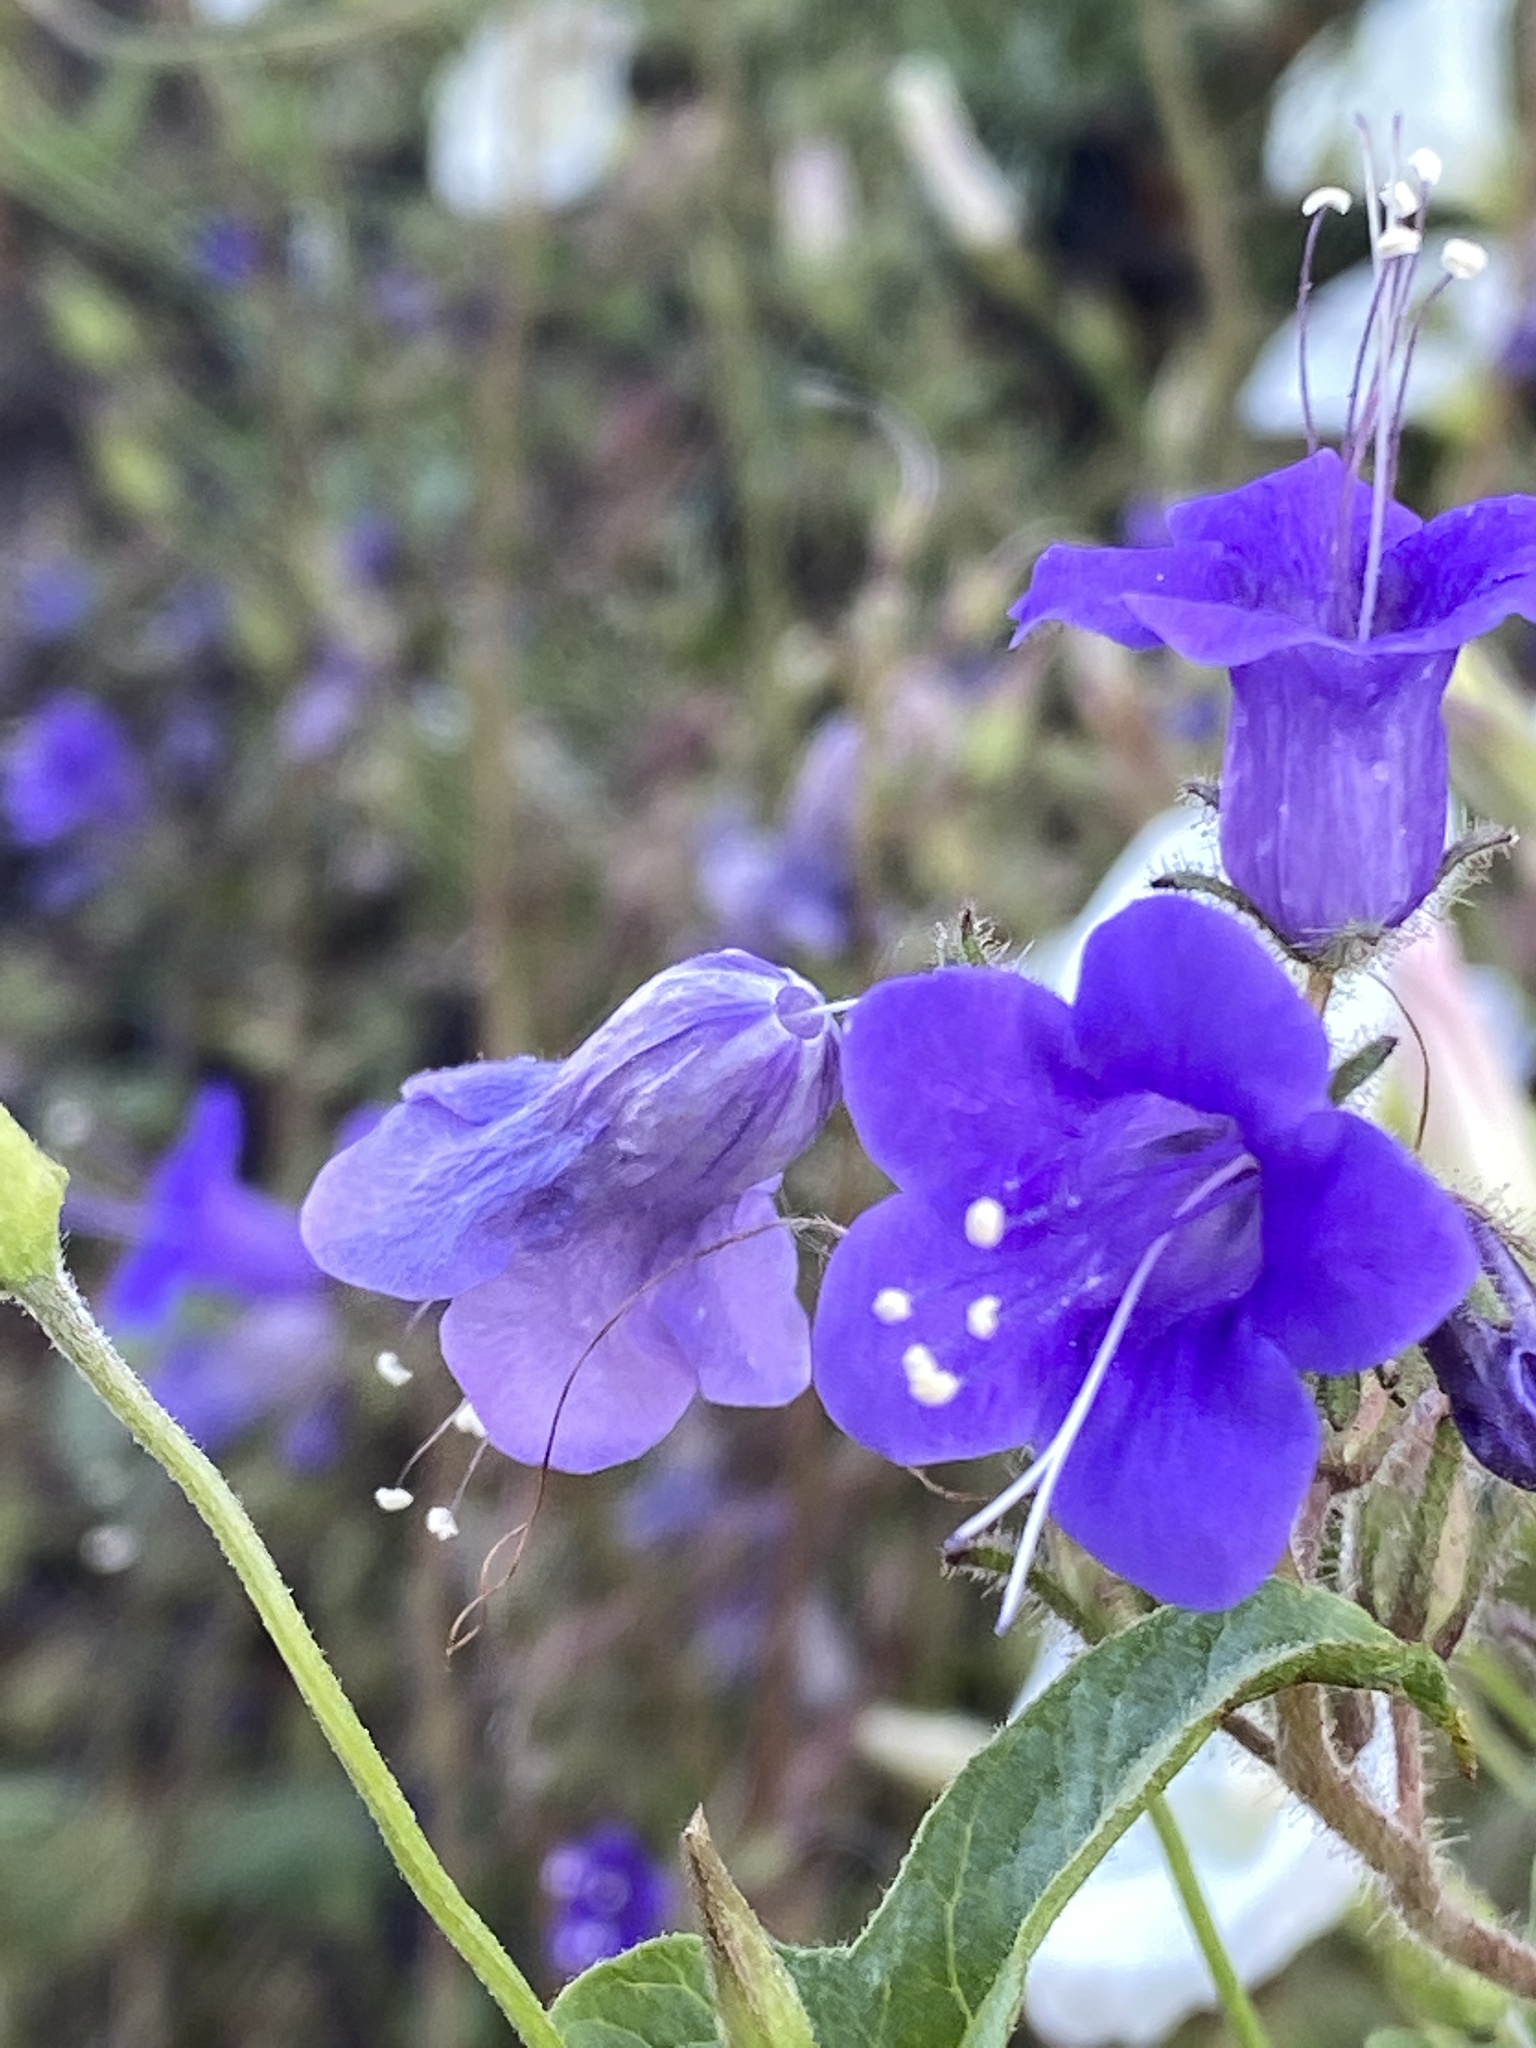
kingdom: Plantae
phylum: Tracheophyta
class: Magnoliopsida
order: Boraginales
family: Hydrophyllaceae
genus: Phacelia
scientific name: Phacelia minor
